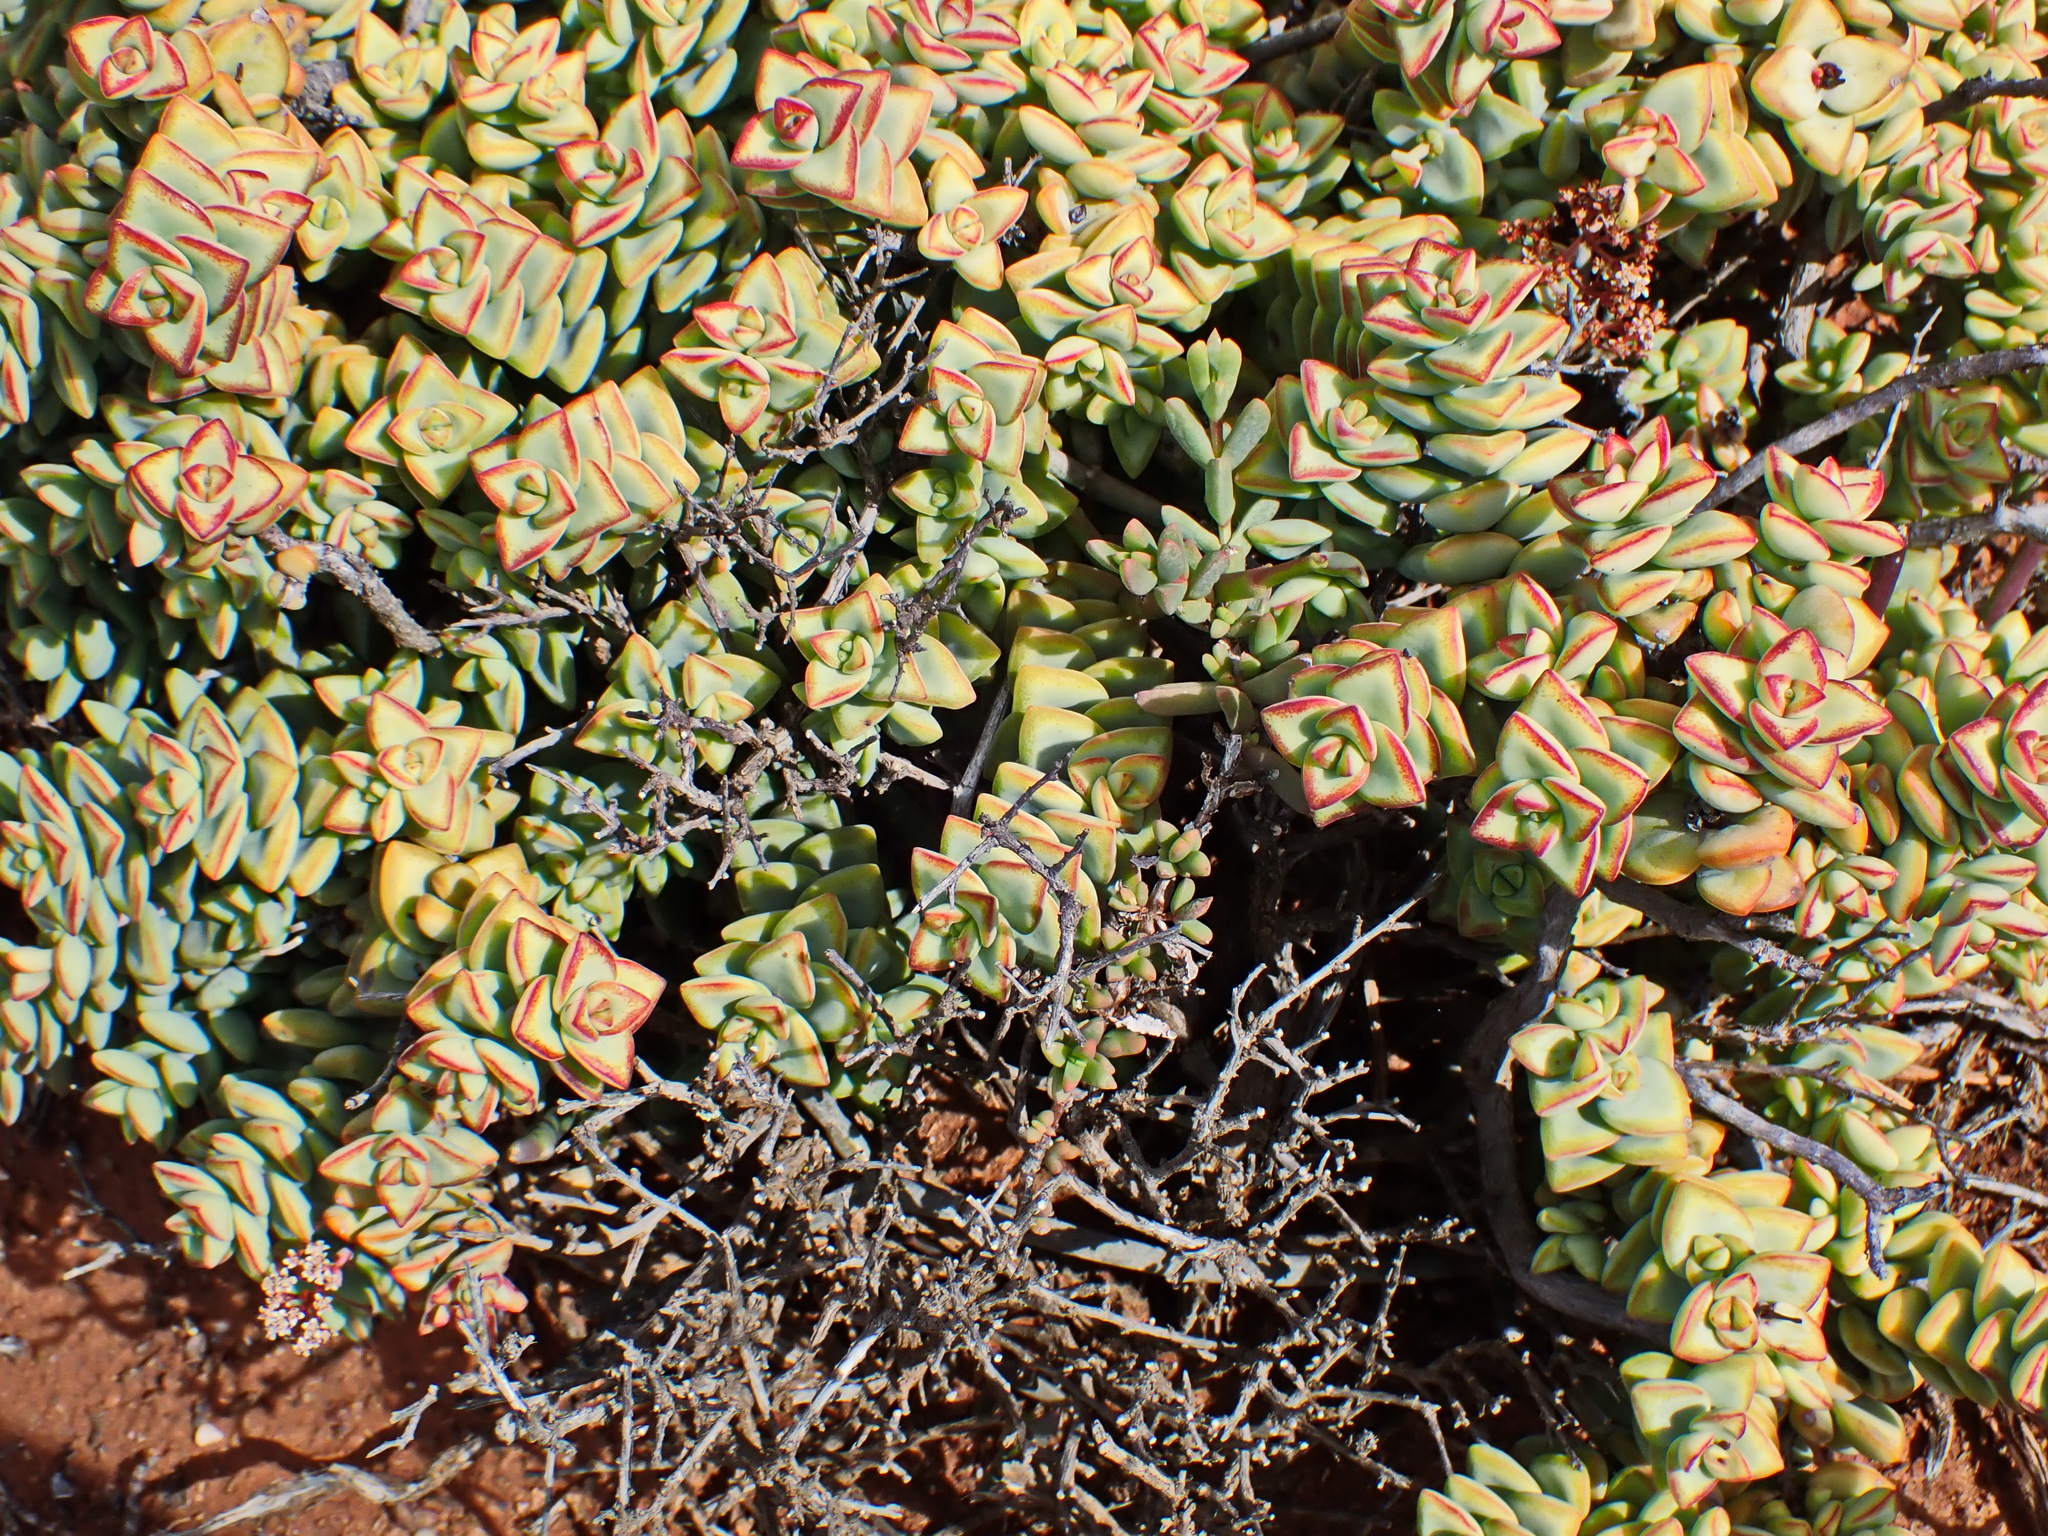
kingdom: Plantae
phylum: Tracheophyta
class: Magnoliopsida
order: Saxifragales
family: Crassulaceae
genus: Crassula
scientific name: Crassula rupestris
